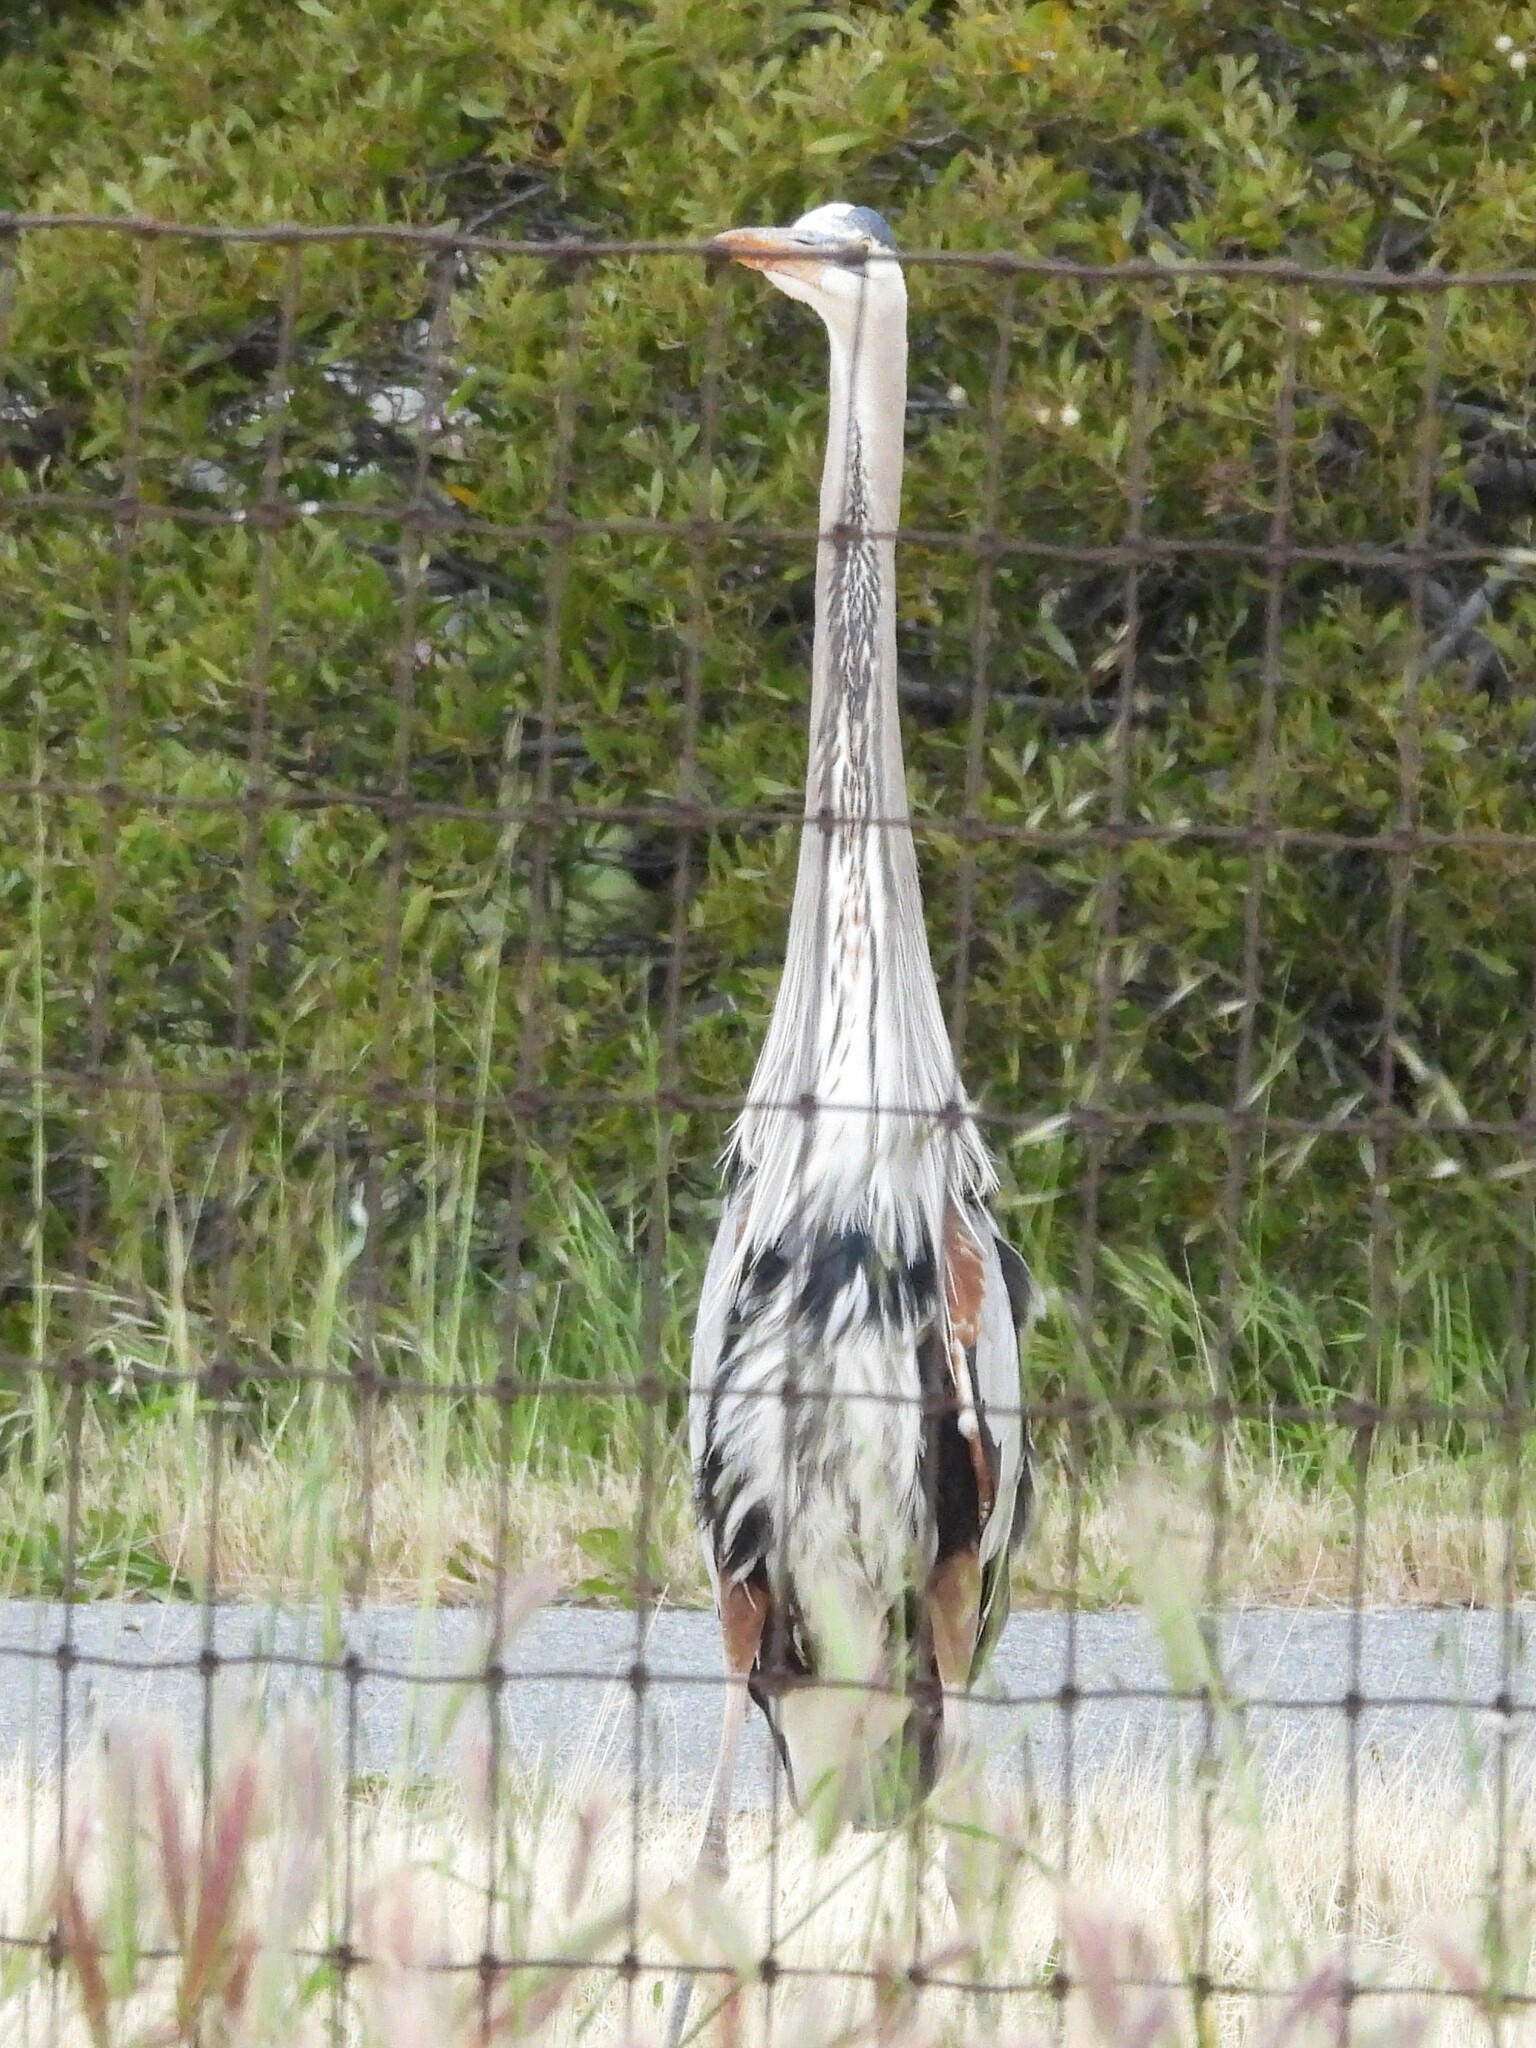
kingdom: Animalia
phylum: Chordata
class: Aves
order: Pelecaniformes
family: Ardeidae
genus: Ardea
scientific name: Ardea herodias
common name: Great blue heron
